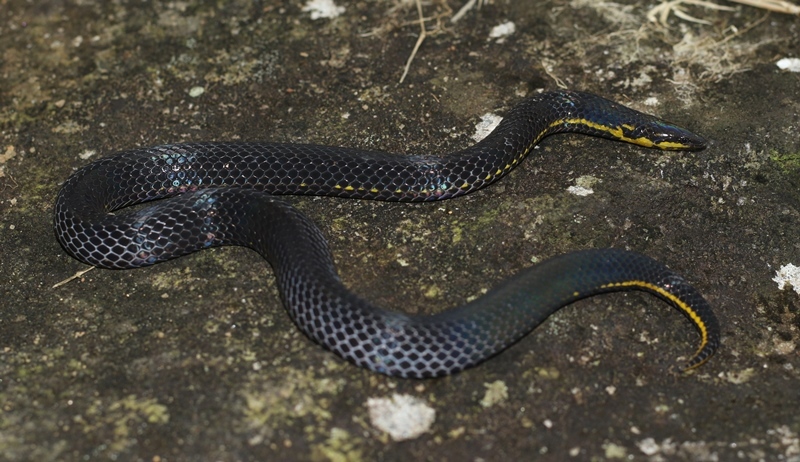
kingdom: Animalia
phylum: Chordata
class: Squamata
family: Colubridae
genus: Aspidura
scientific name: Aspidura ravanai
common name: Ravana’s rough-side snake
